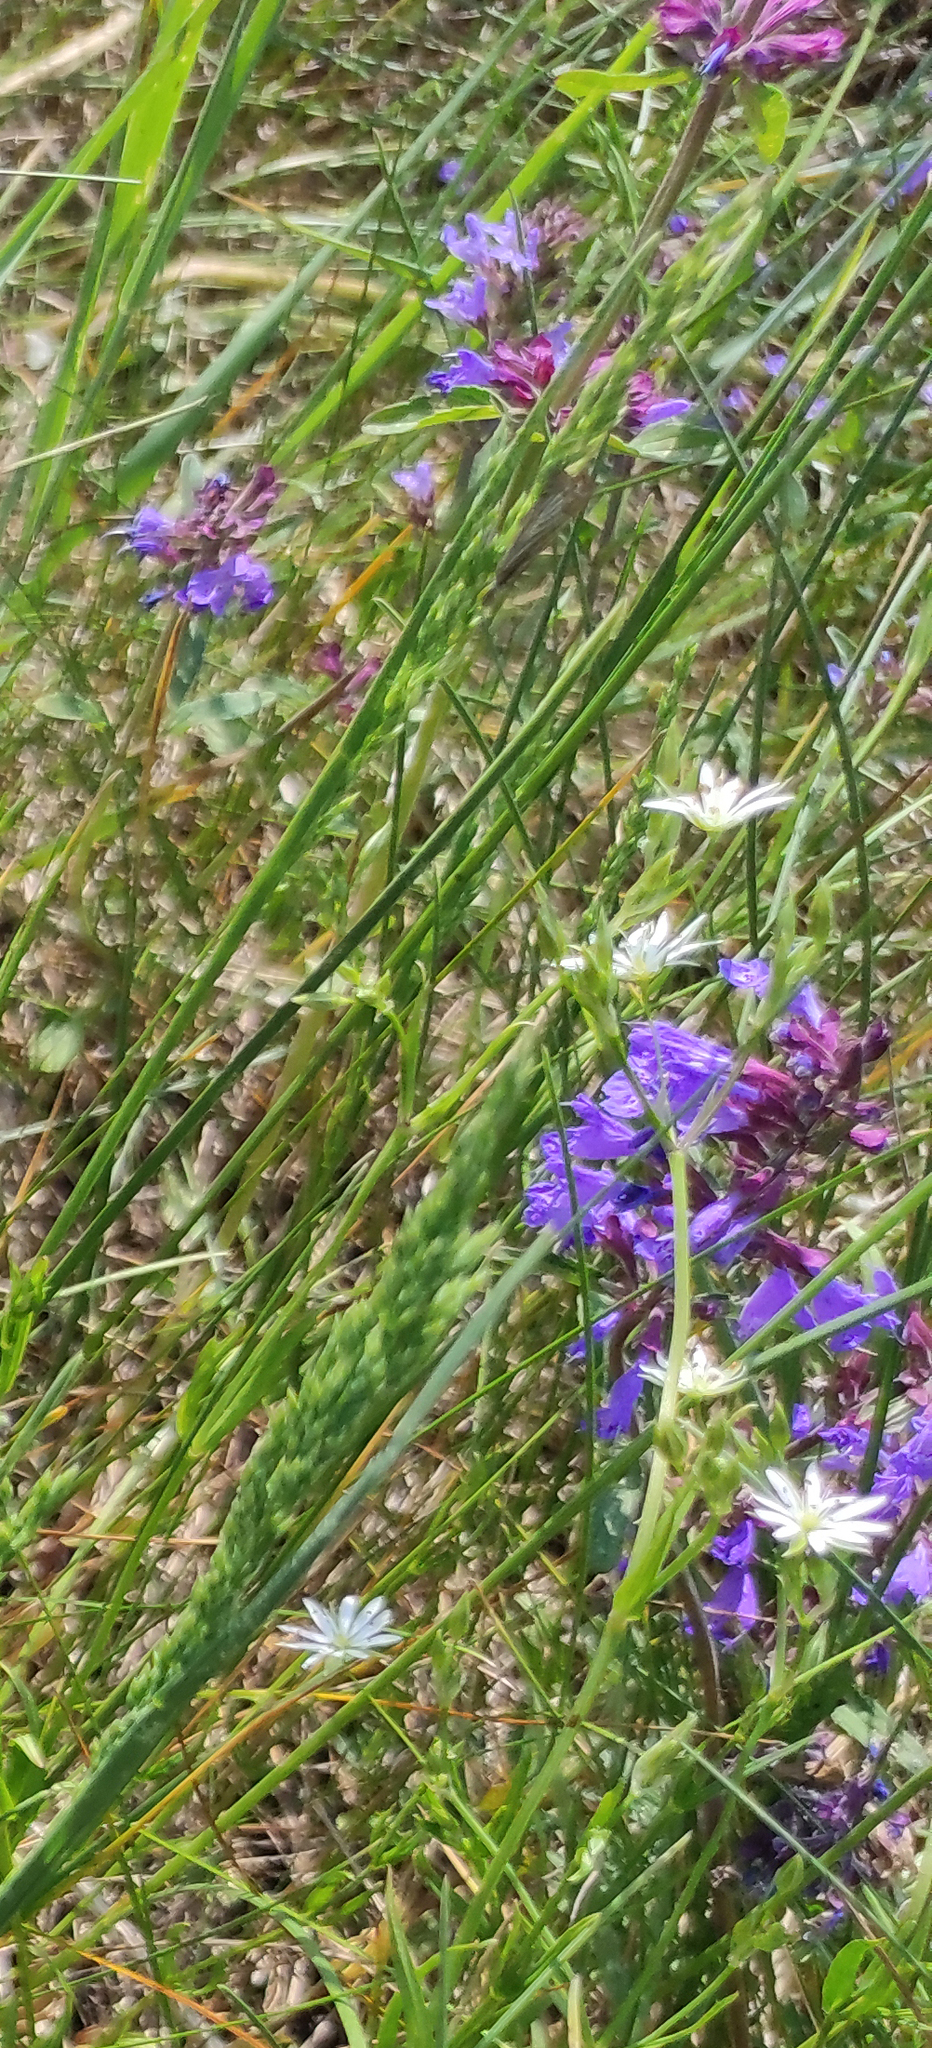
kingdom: Plantae
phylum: Tracheophyta
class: Magnoliopsida
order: Caryophyllales
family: Caryophyllaceae
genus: Stellaria
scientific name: Stellaria graminea
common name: Grass-like starwort
